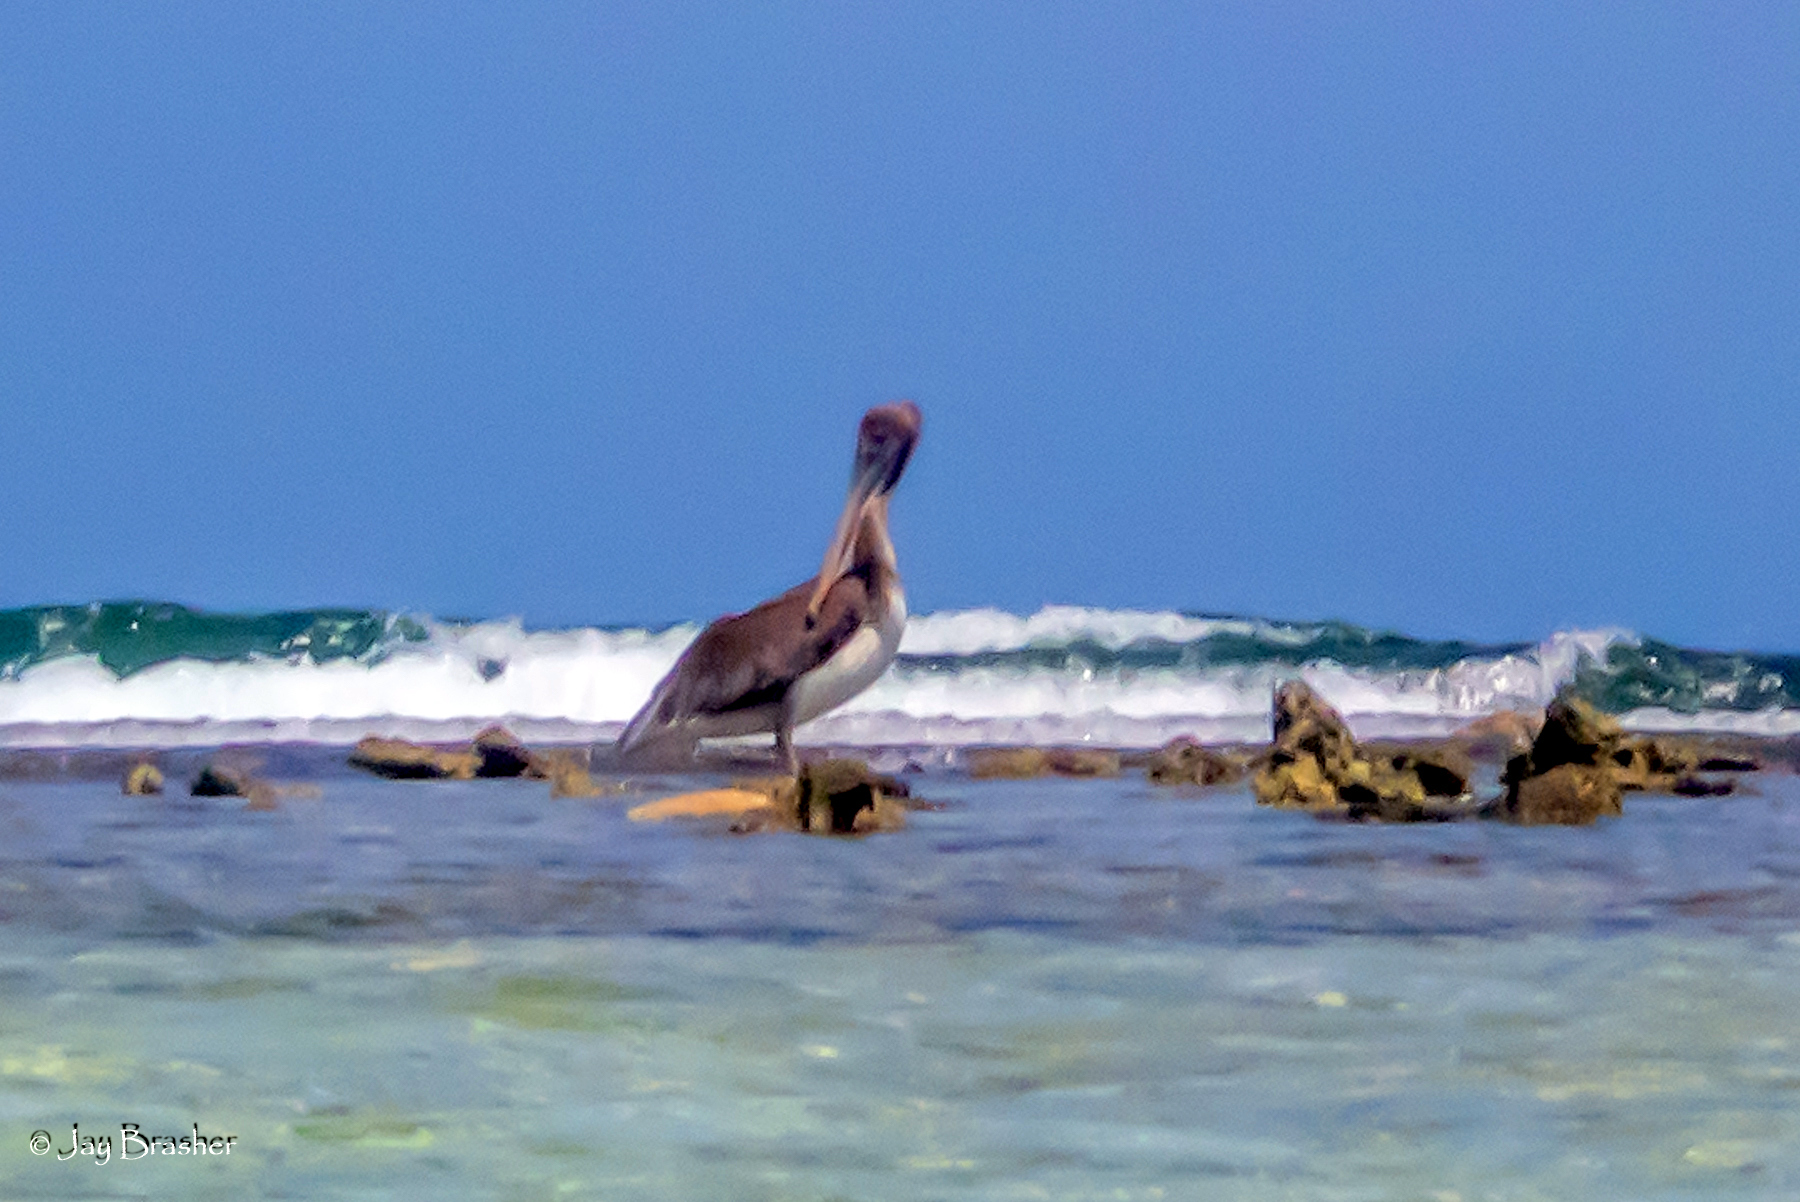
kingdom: Animalia
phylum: Chordata
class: Aves
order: Pelecaniformes
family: Pelecanidae
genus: Pelecanus
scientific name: Pelecanus occidentalis
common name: Brown pelican
